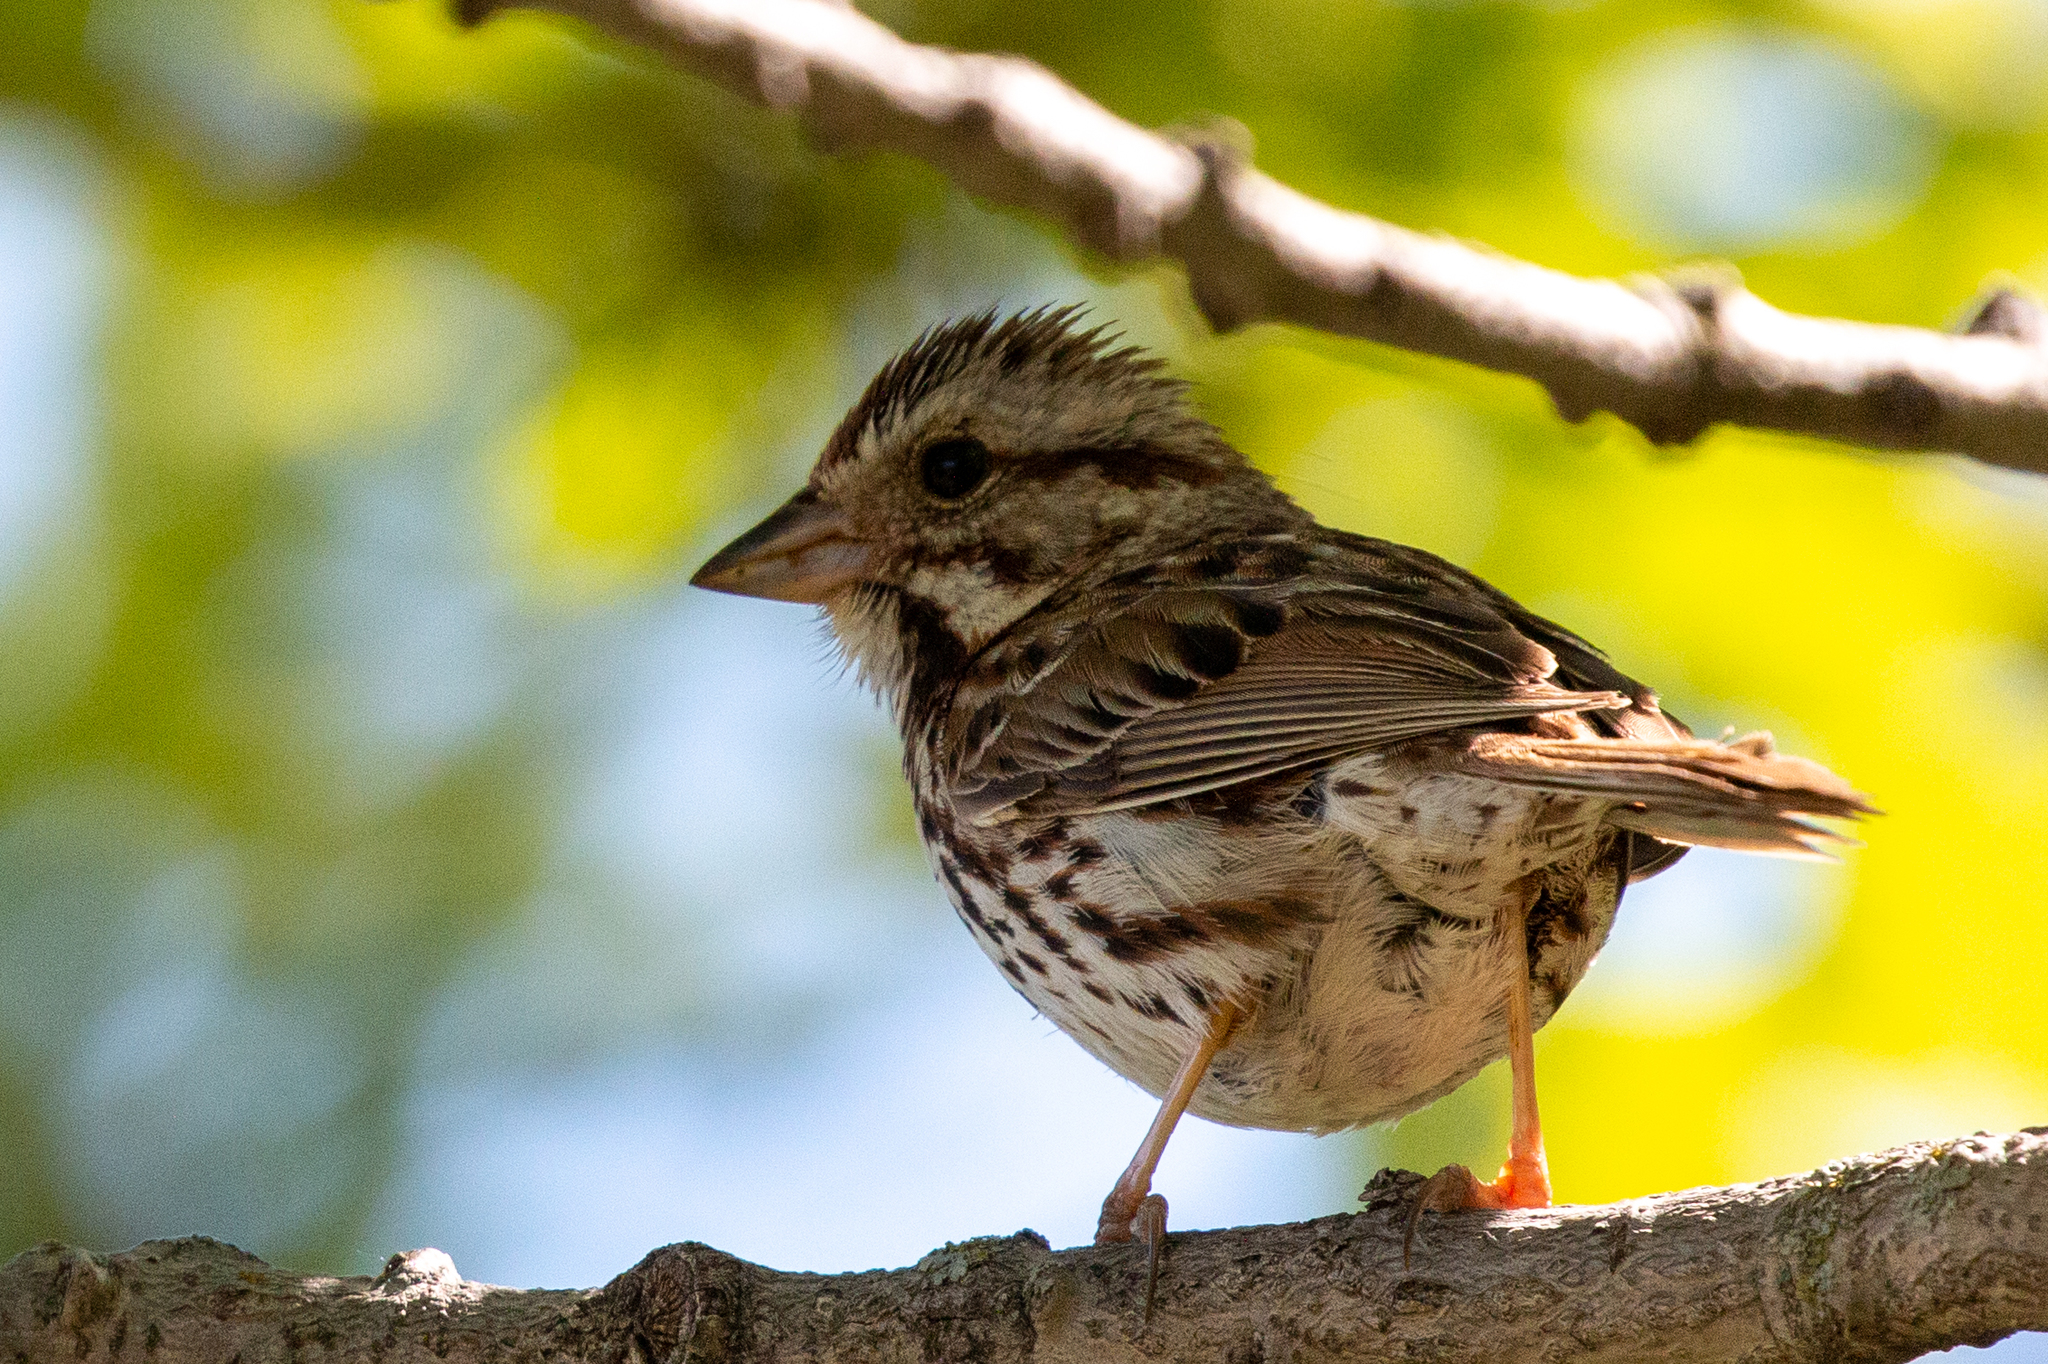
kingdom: Animalia
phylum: Chordata
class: Aves
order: Passeriformes
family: Passerellidae
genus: Melospiza
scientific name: Melospiza melodia
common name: Song sparrow
